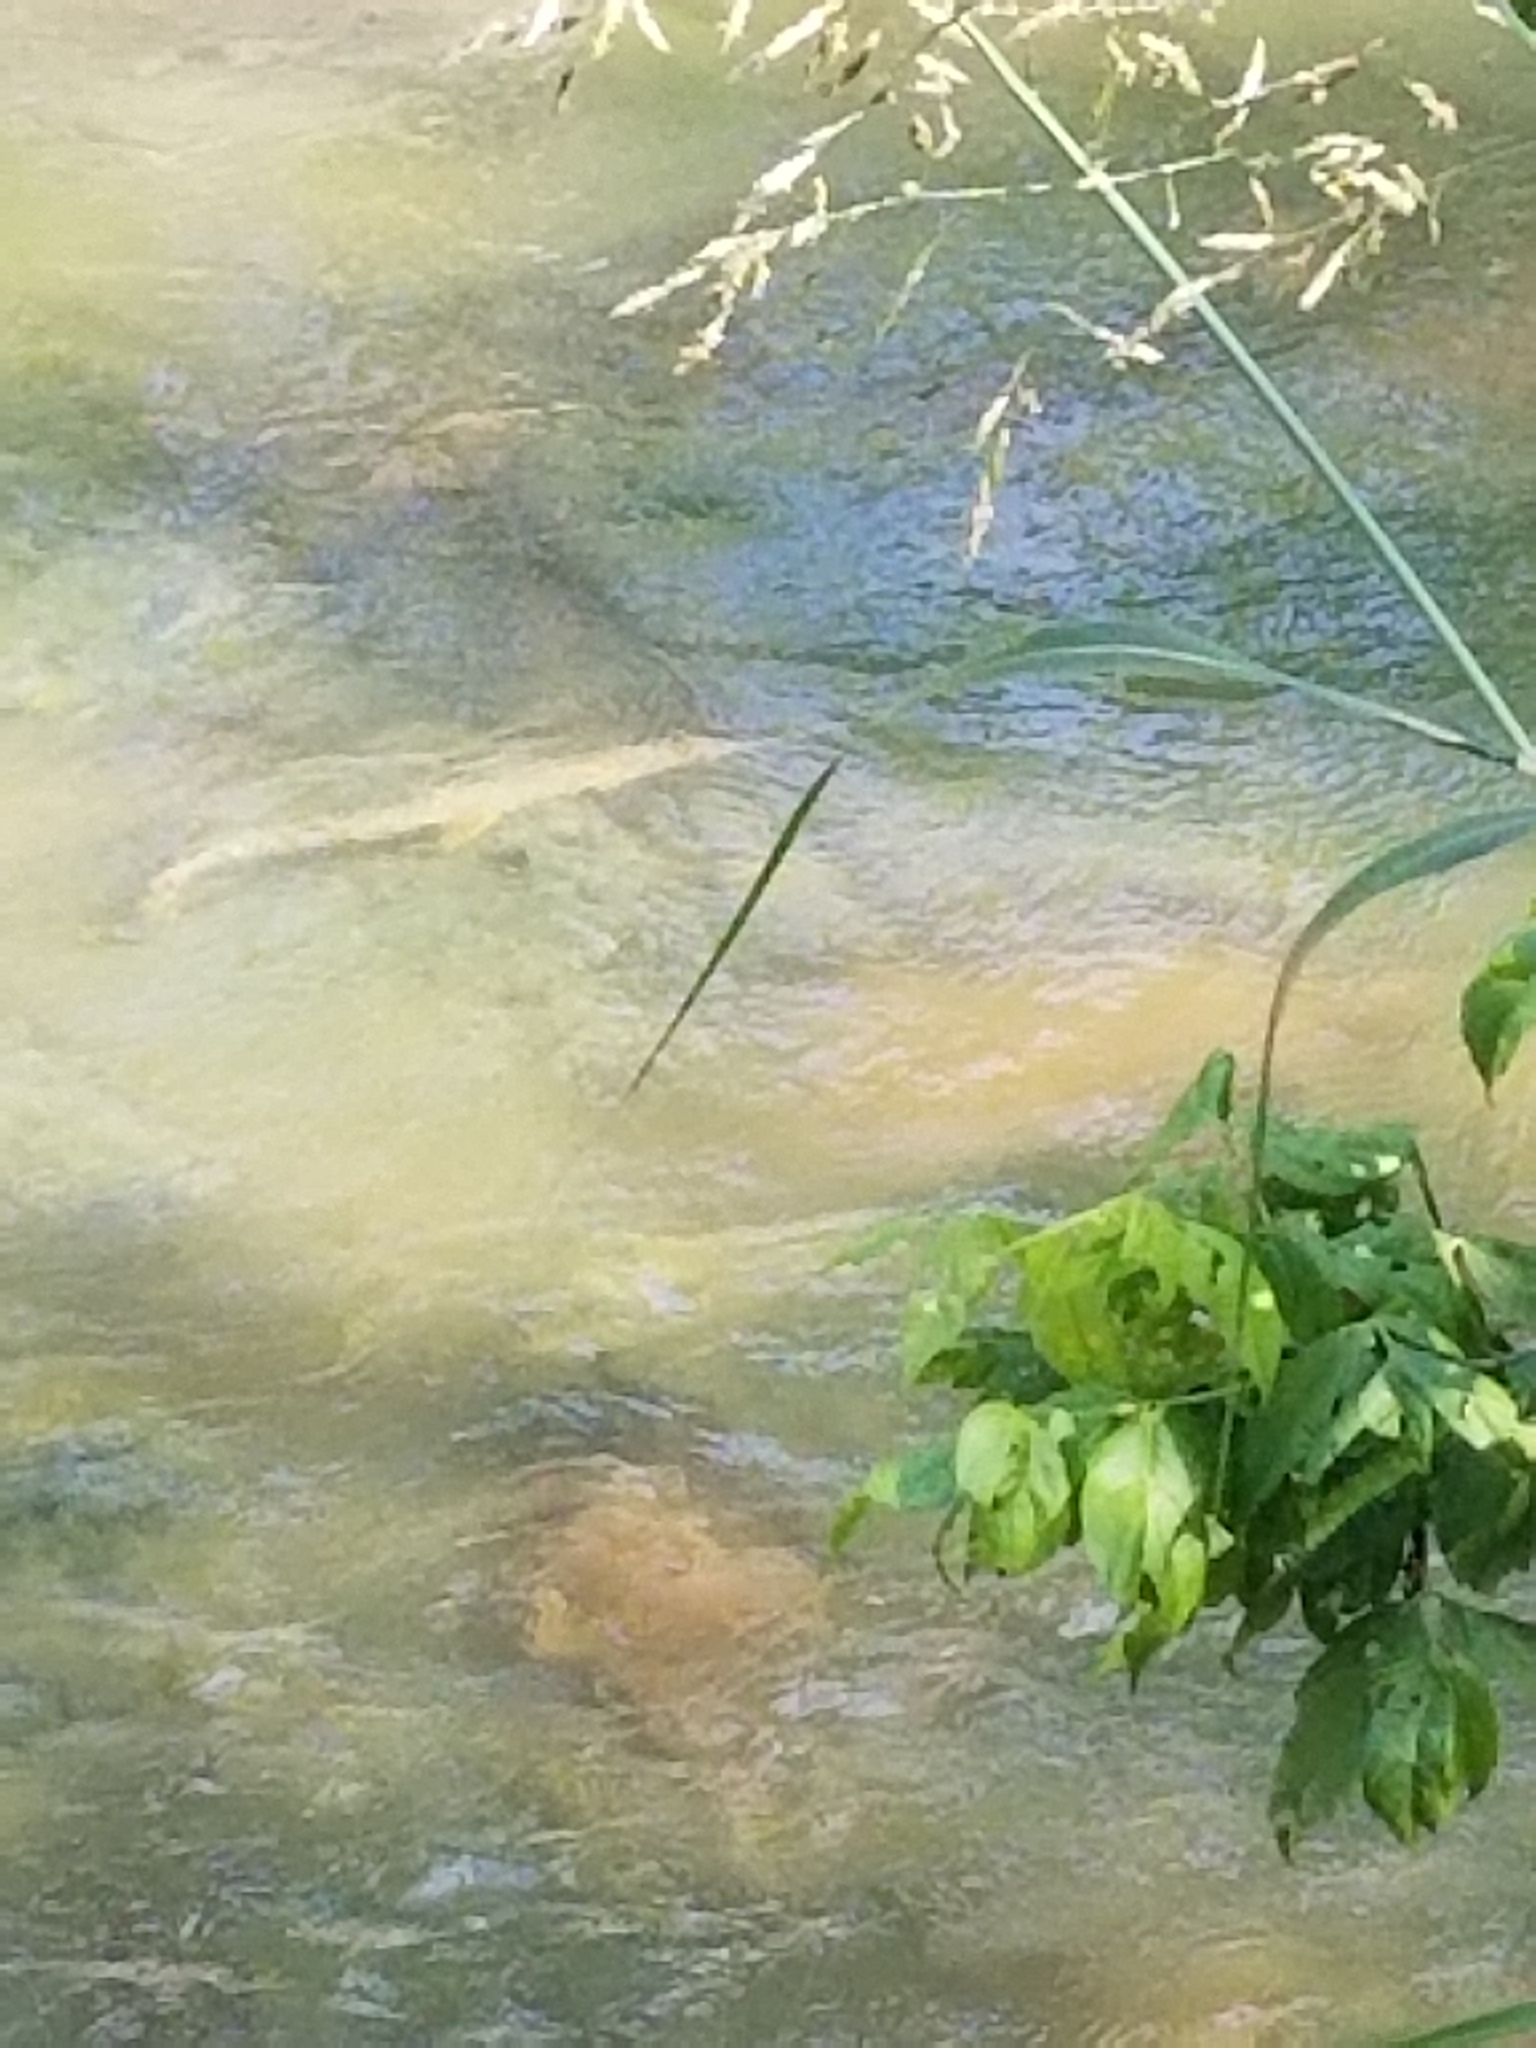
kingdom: Animalia
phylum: Chordata
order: Lepisosteiformes
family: Lepisosteidae
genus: Lepisosteus
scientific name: Lepisosteus osseus
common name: Longnose gar
